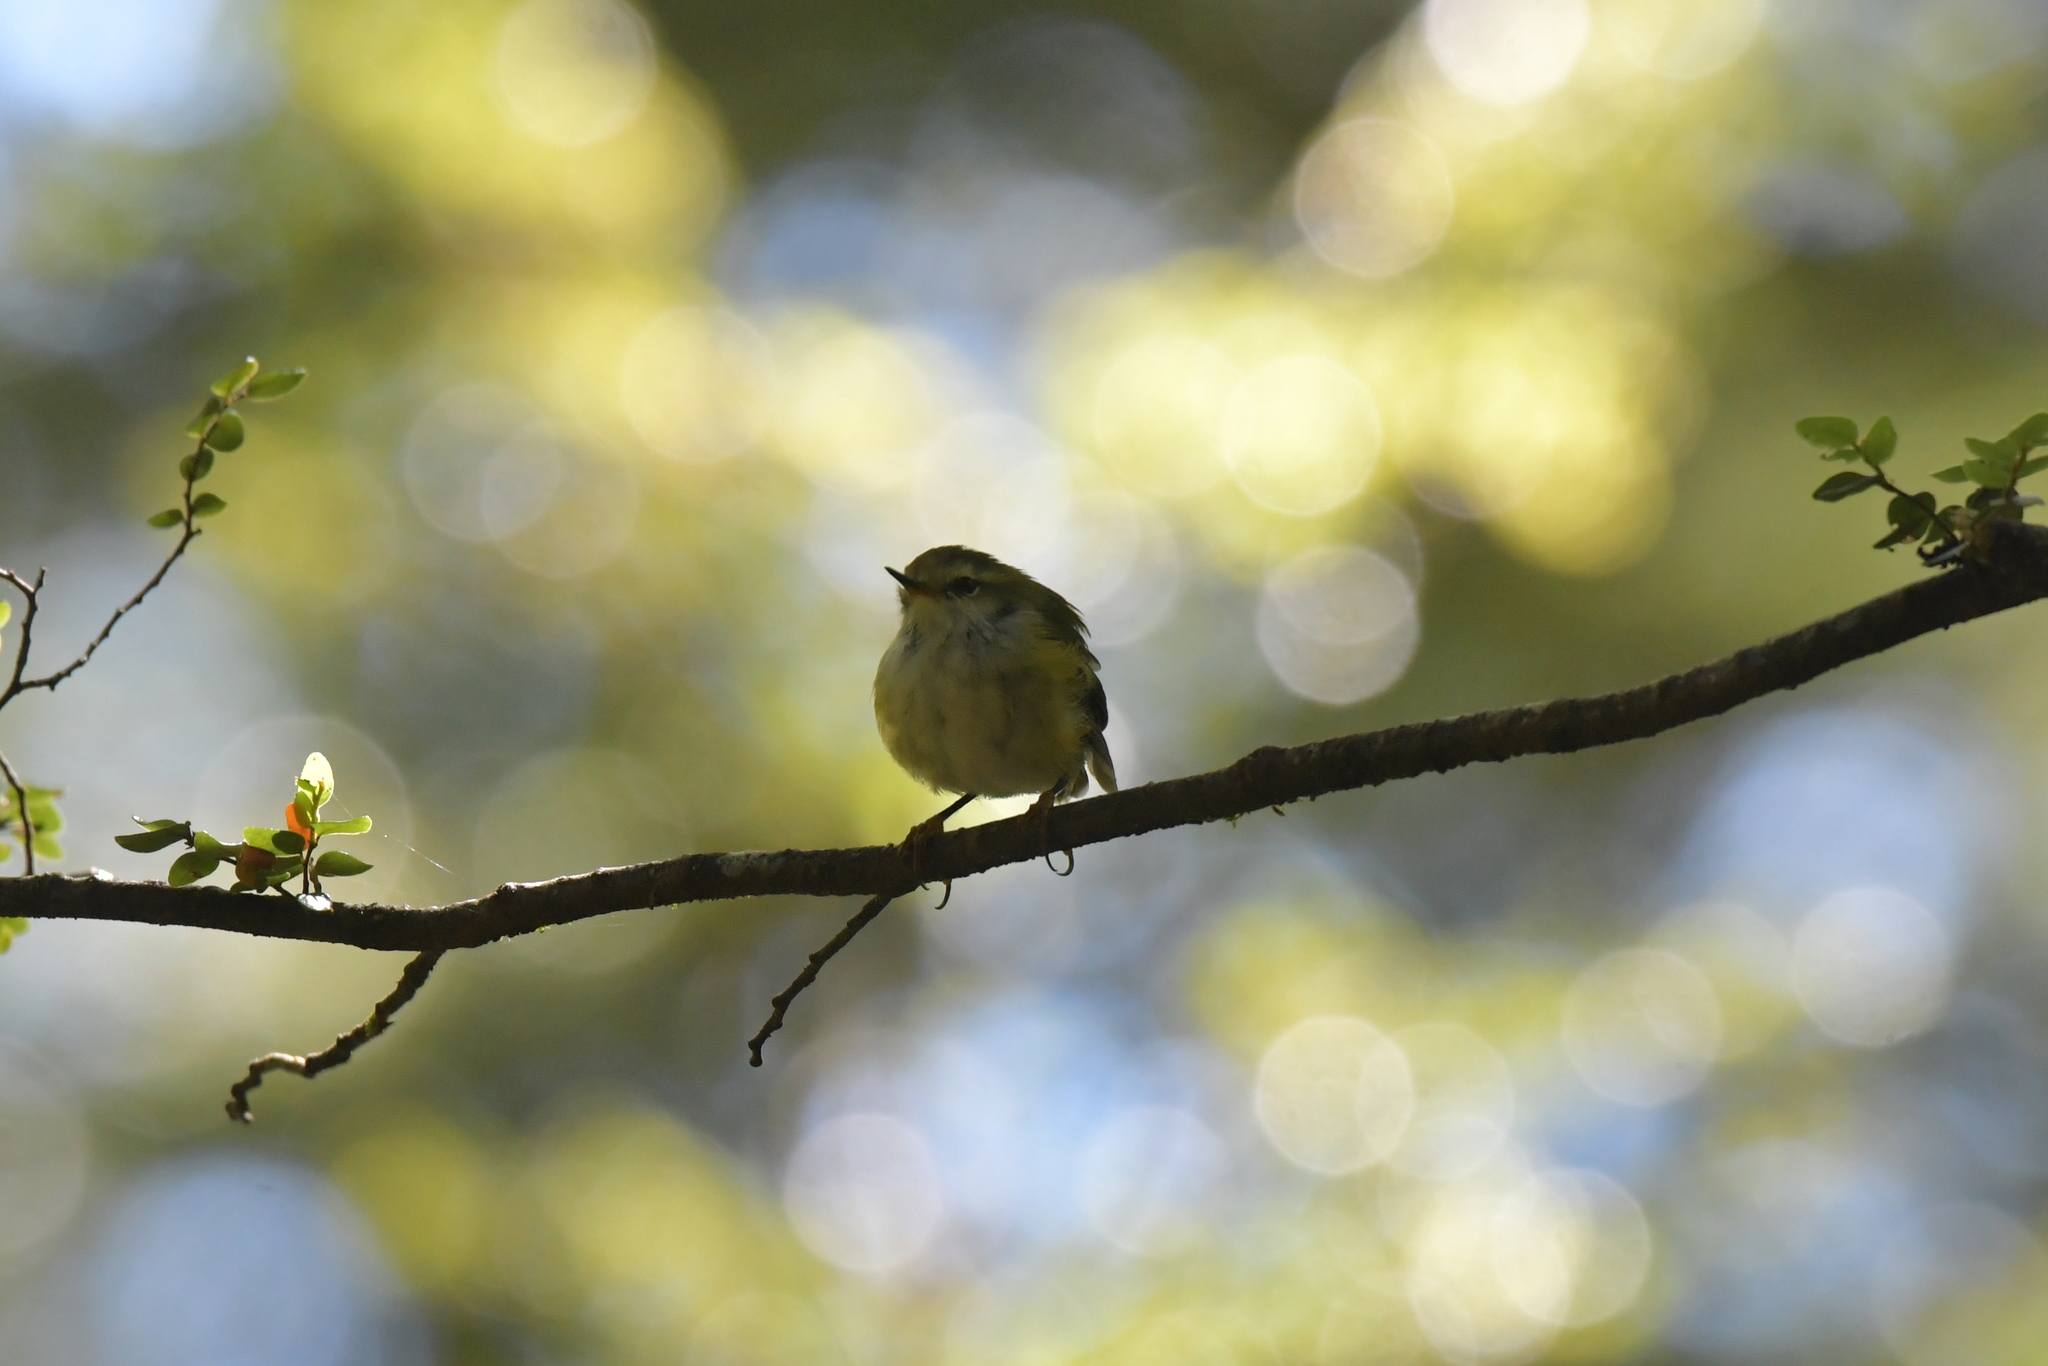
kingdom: Animalia
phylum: Chordata
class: Aves
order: Passeriformes
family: Acanthisittidae
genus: Acanthisitta
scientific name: Acanthisitta chloris
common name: Rifleman
